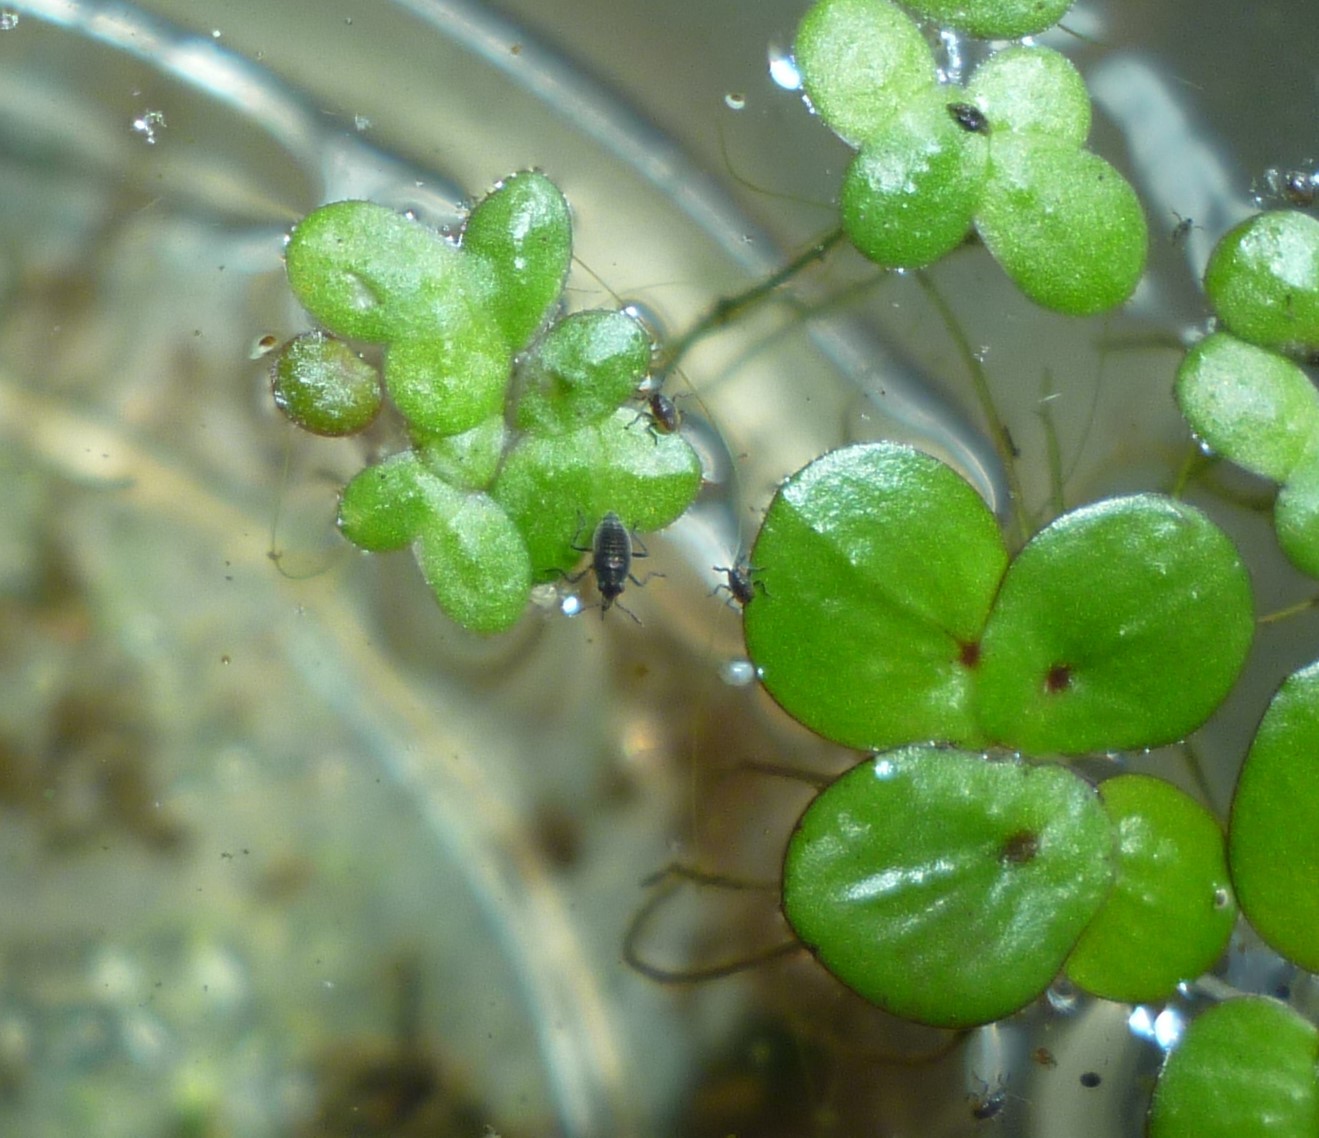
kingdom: Animalia
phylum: Arthropoda
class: Insecta
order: Hemiptera
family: Veliidae
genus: Microvelia
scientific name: Microvelia
